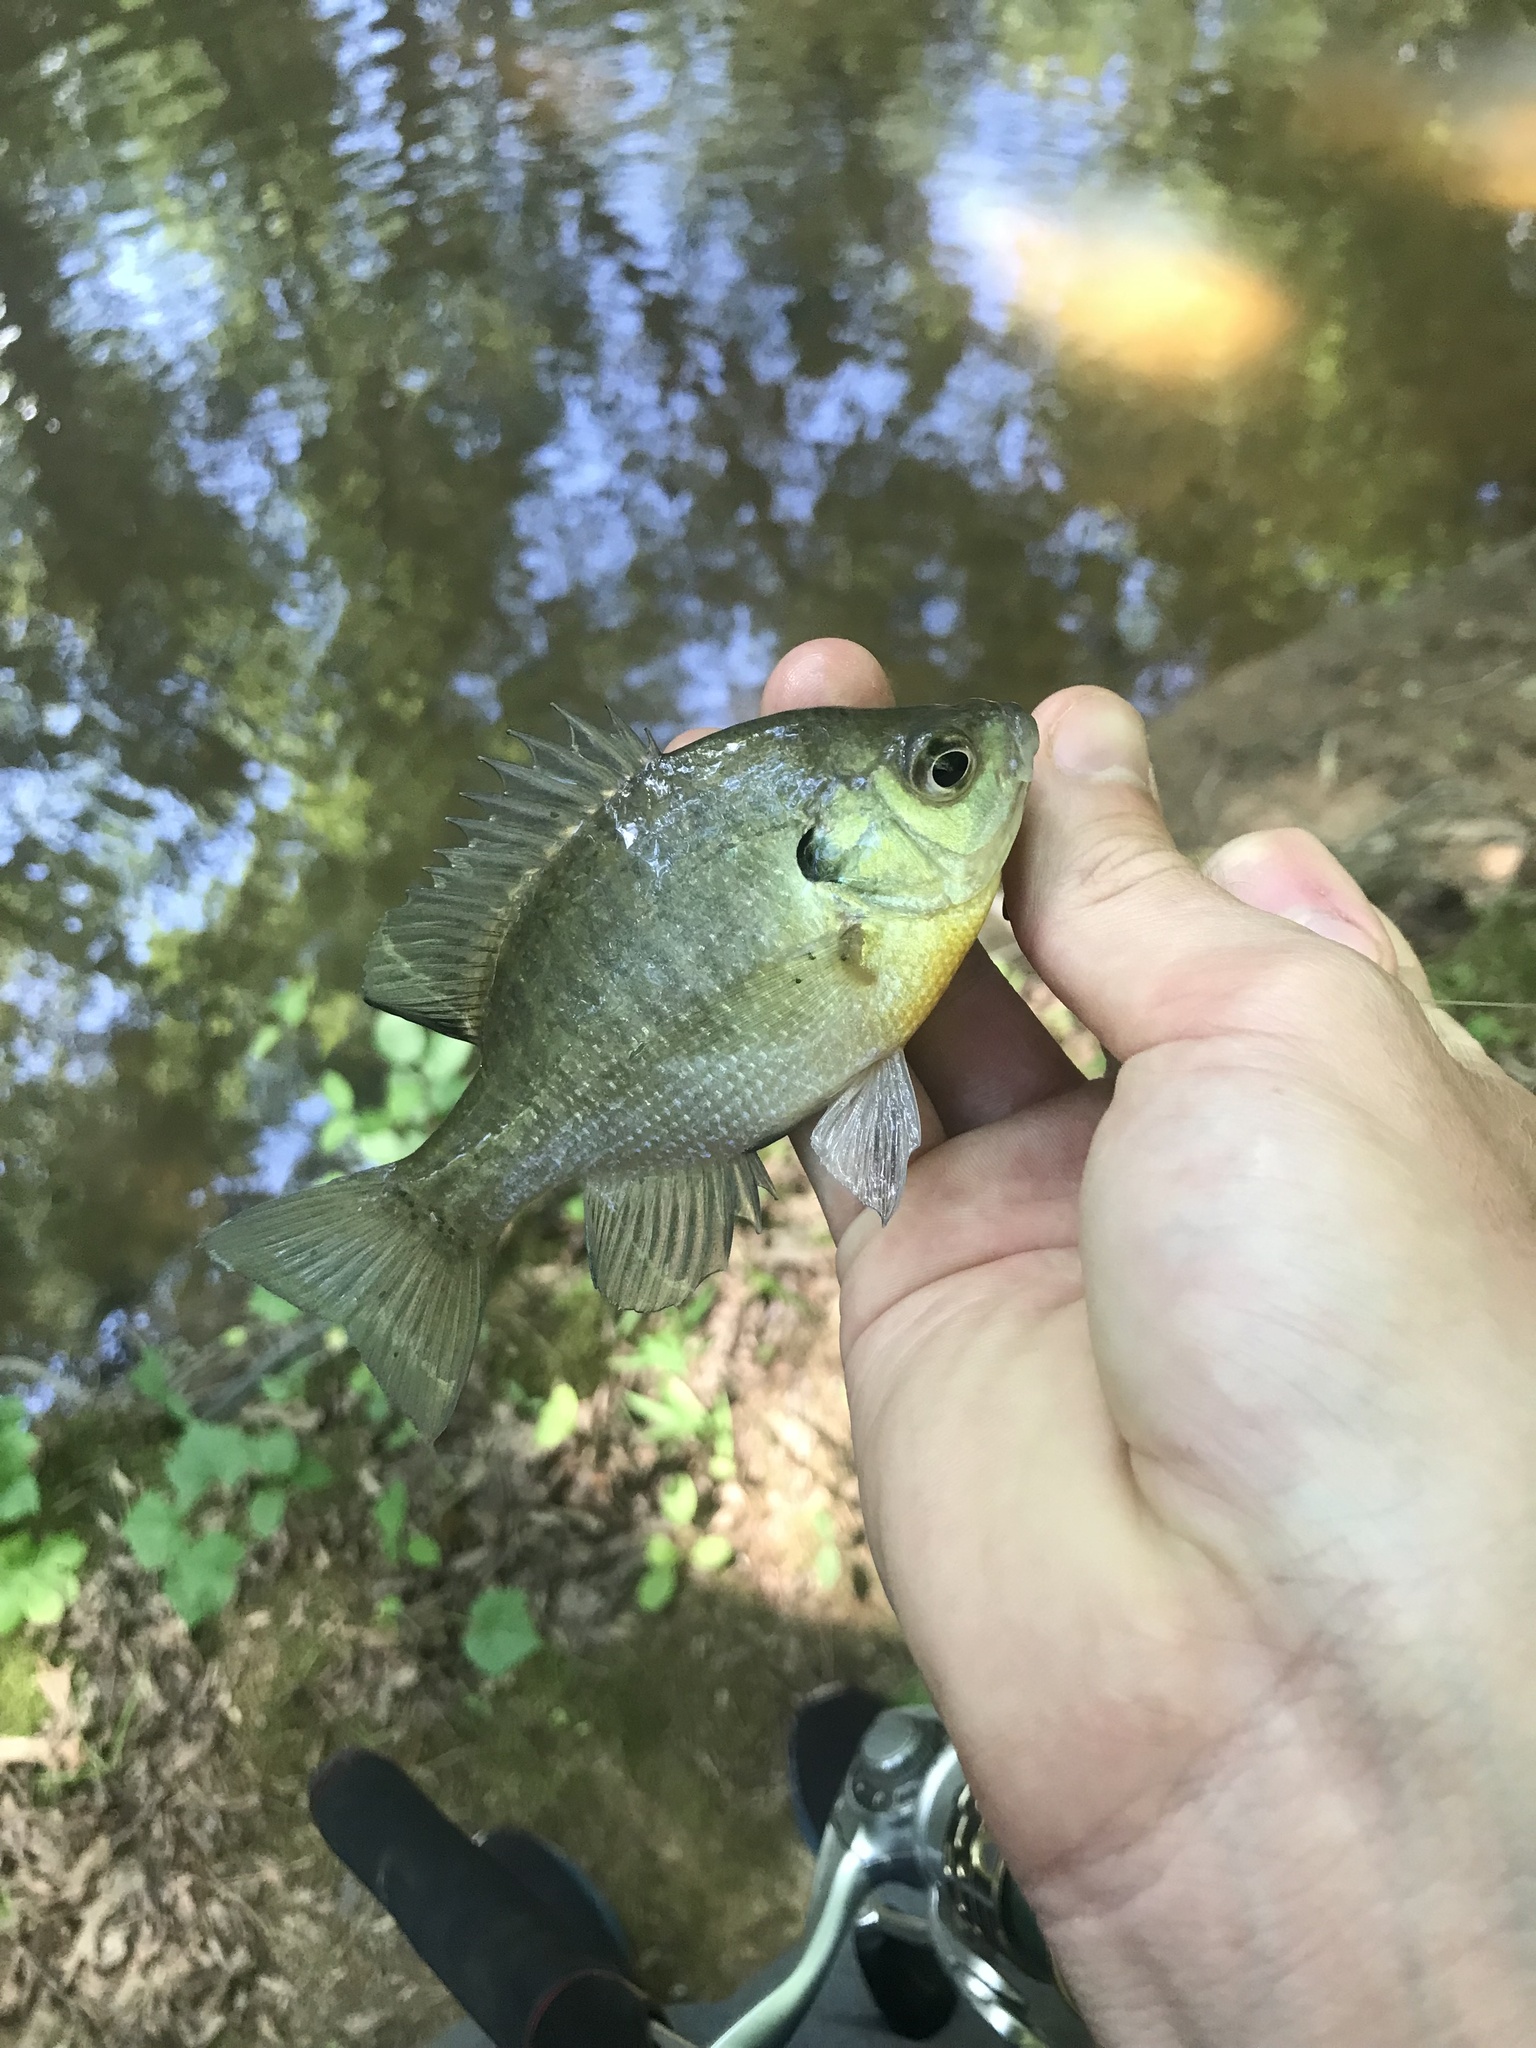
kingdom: Animalia
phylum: Chordata
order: Perciformes
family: Centrarchidae
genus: Lepomis
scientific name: Lepomis macrochirus
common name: Bluegill
